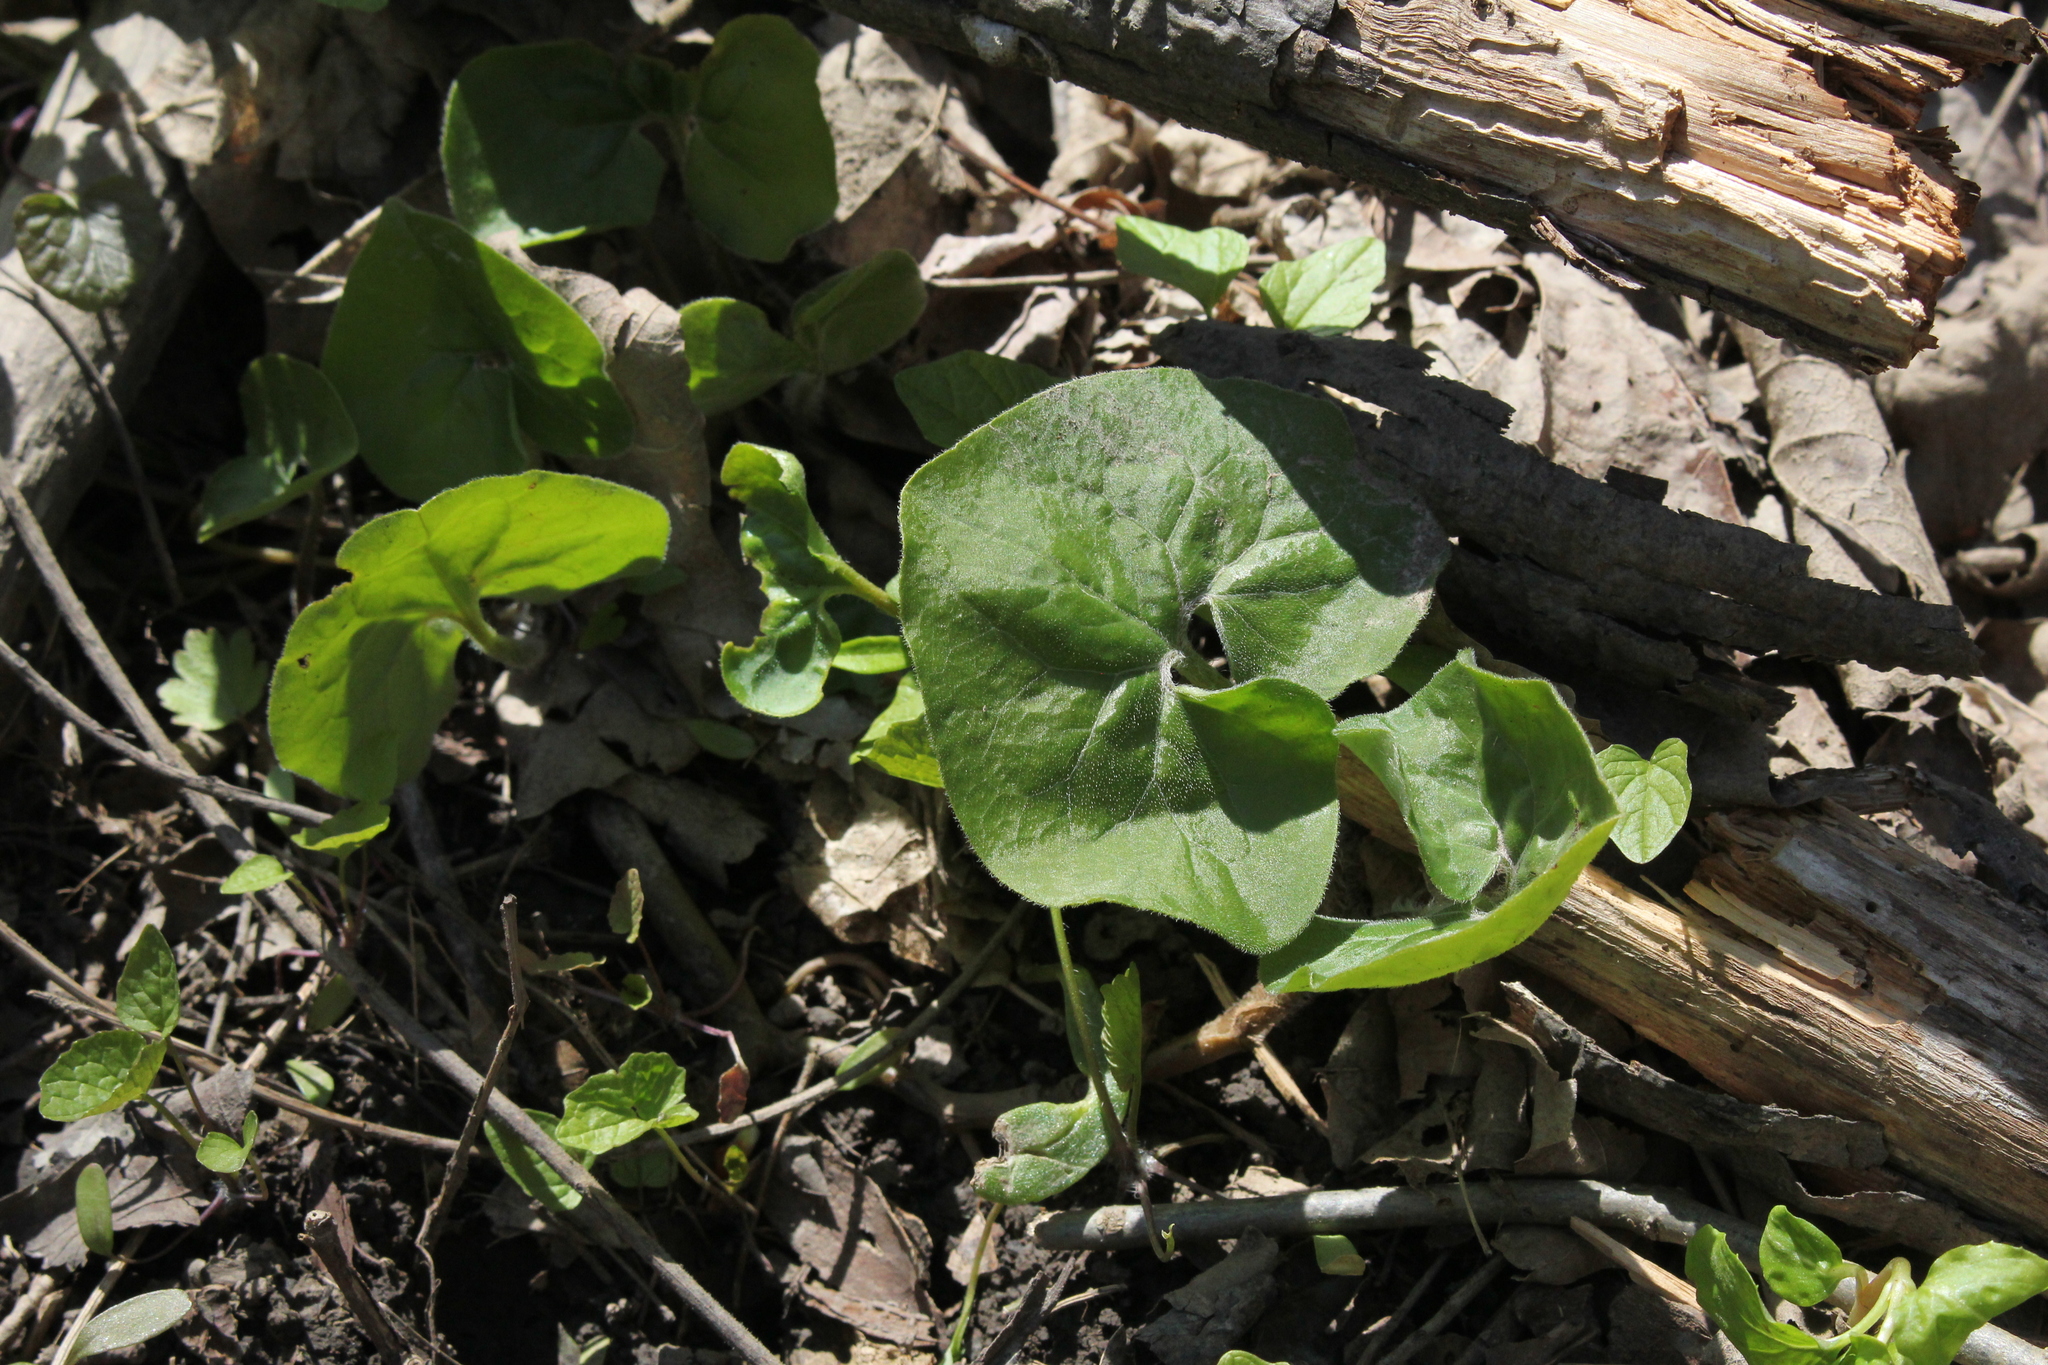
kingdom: Plantae
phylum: Tracheophyta
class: Magnoliopsida
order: Piperales
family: Aristolochiaceae
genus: Asarum
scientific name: Asarum canadense
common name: Wild ginger
